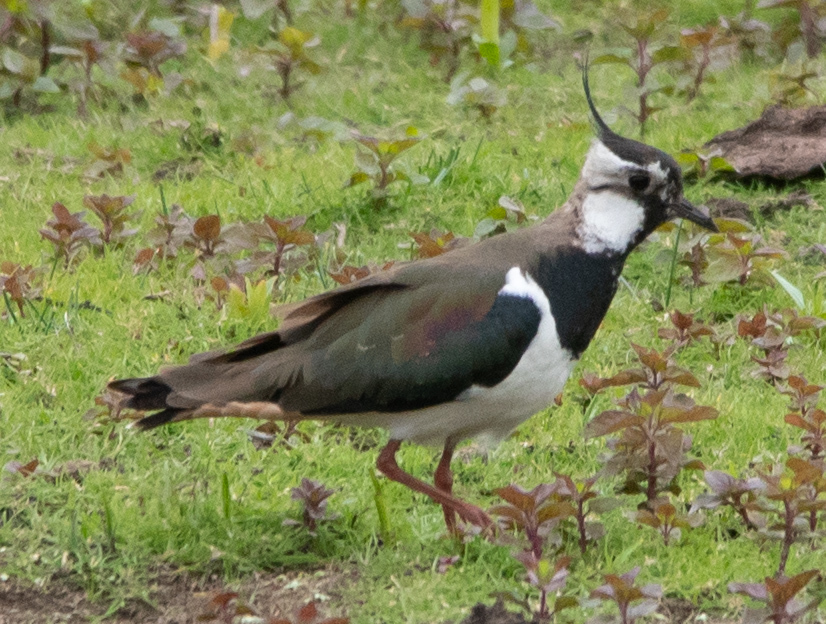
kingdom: Animalia
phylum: Chordata
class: Aves
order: Charadriiformes
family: Charadriidae
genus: Vanellus
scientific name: Vanellus vanellus
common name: Northern lapwing
